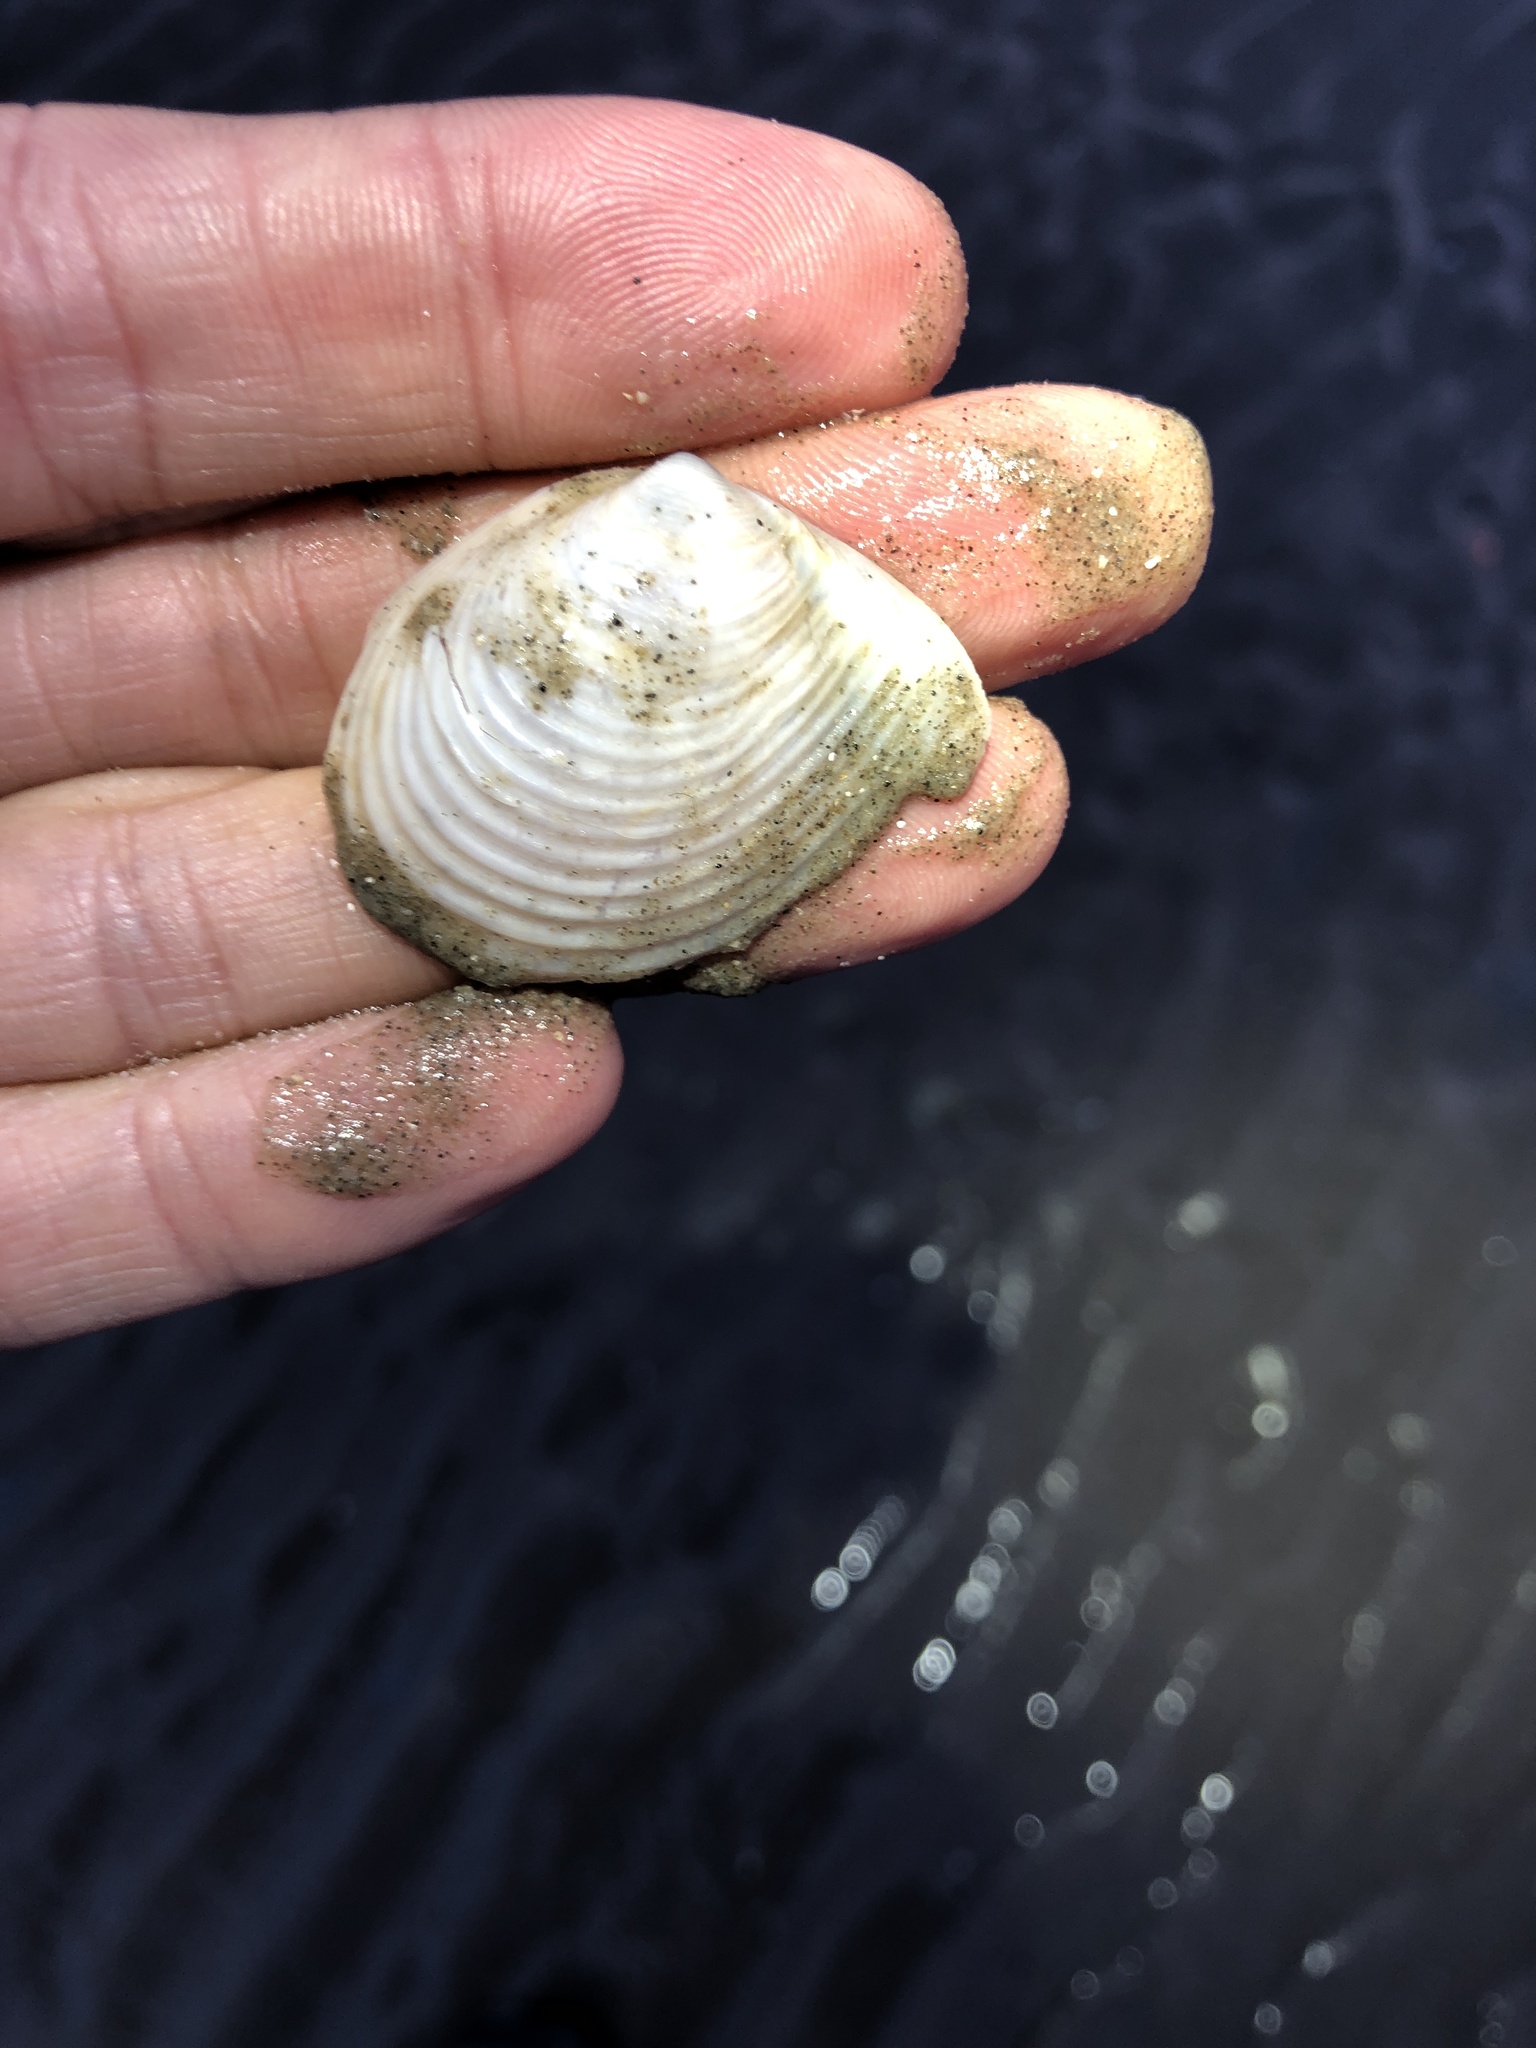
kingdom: Animalia
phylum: Mollusca
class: Bivalvia
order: Venerida
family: Anatinellidae
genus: Raeta
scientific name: Raeta plicatella
